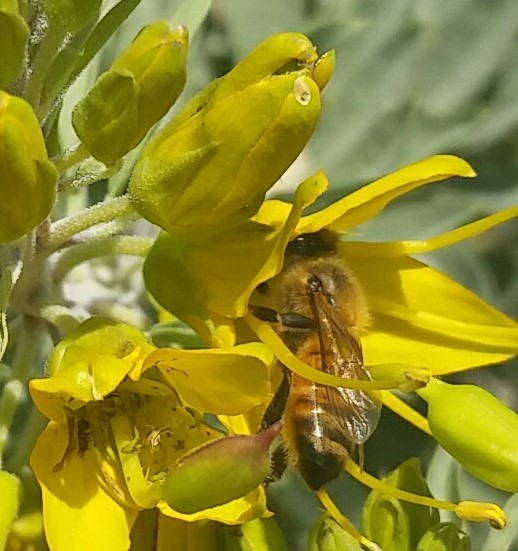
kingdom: Animalia
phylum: Arthropoda
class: Insecta
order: Hymenoptera
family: Apidae
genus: Apis
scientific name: Apis mellifera
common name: Honey bee
